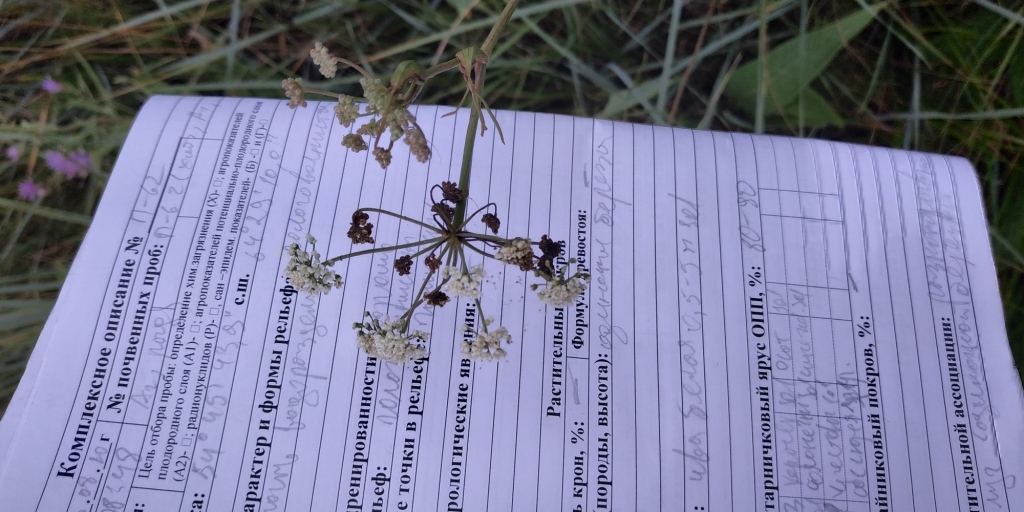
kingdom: Plantae
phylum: Tracheophyta
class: Magnoliopsida
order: Apiales
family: Apiaceae
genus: Cenolophium
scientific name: Cenolophium fischeri
